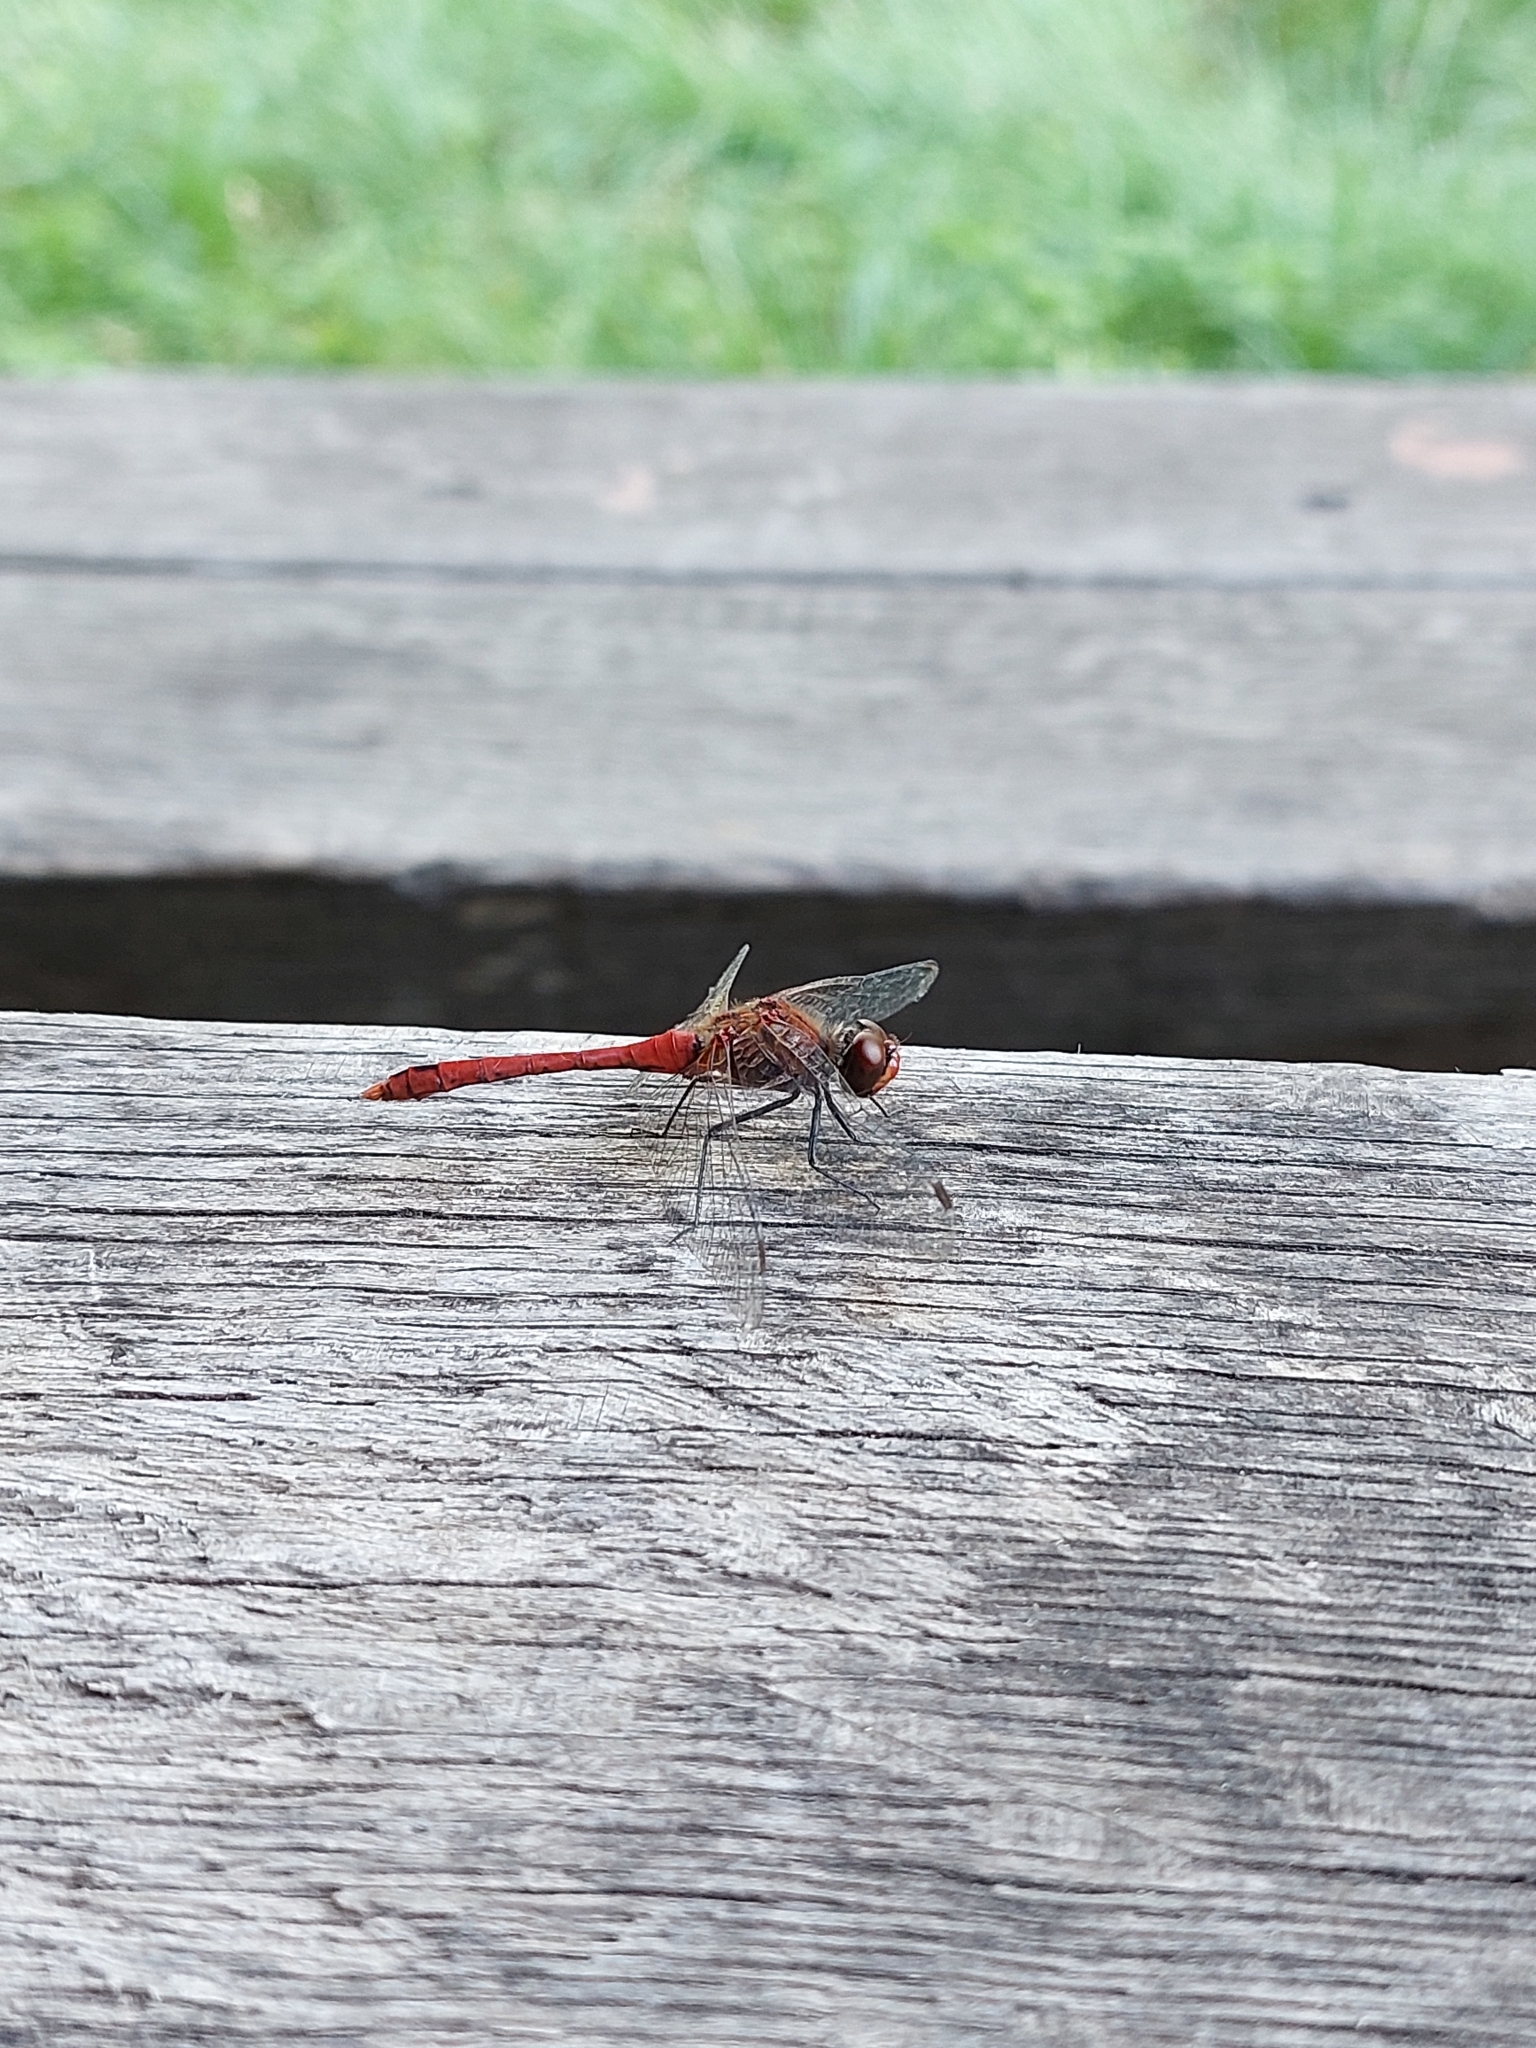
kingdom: Animalia
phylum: Arthropoda
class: Insecta
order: Odonata
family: Libellulidae
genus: Sympetrum
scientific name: Sympetrum sanguineum
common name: Ruddy darter
